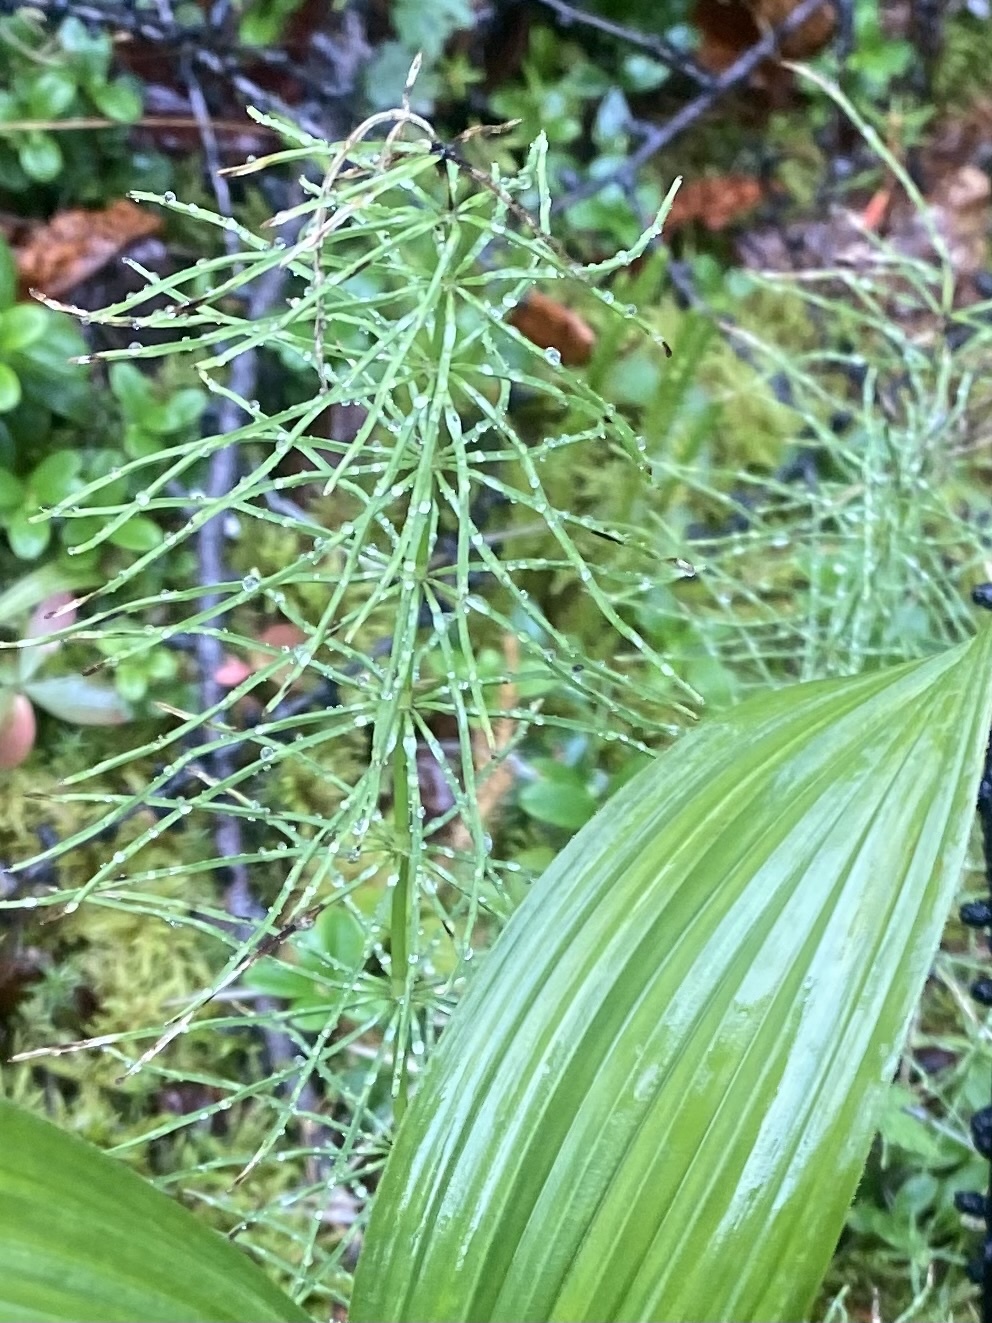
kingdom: Plantae
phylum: Tracheophyta
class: Polypodiopsida
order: Equisetales
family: Equisetaceae
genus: Equisetum
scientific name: Equisetum pratense
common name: Meadow horsetail
